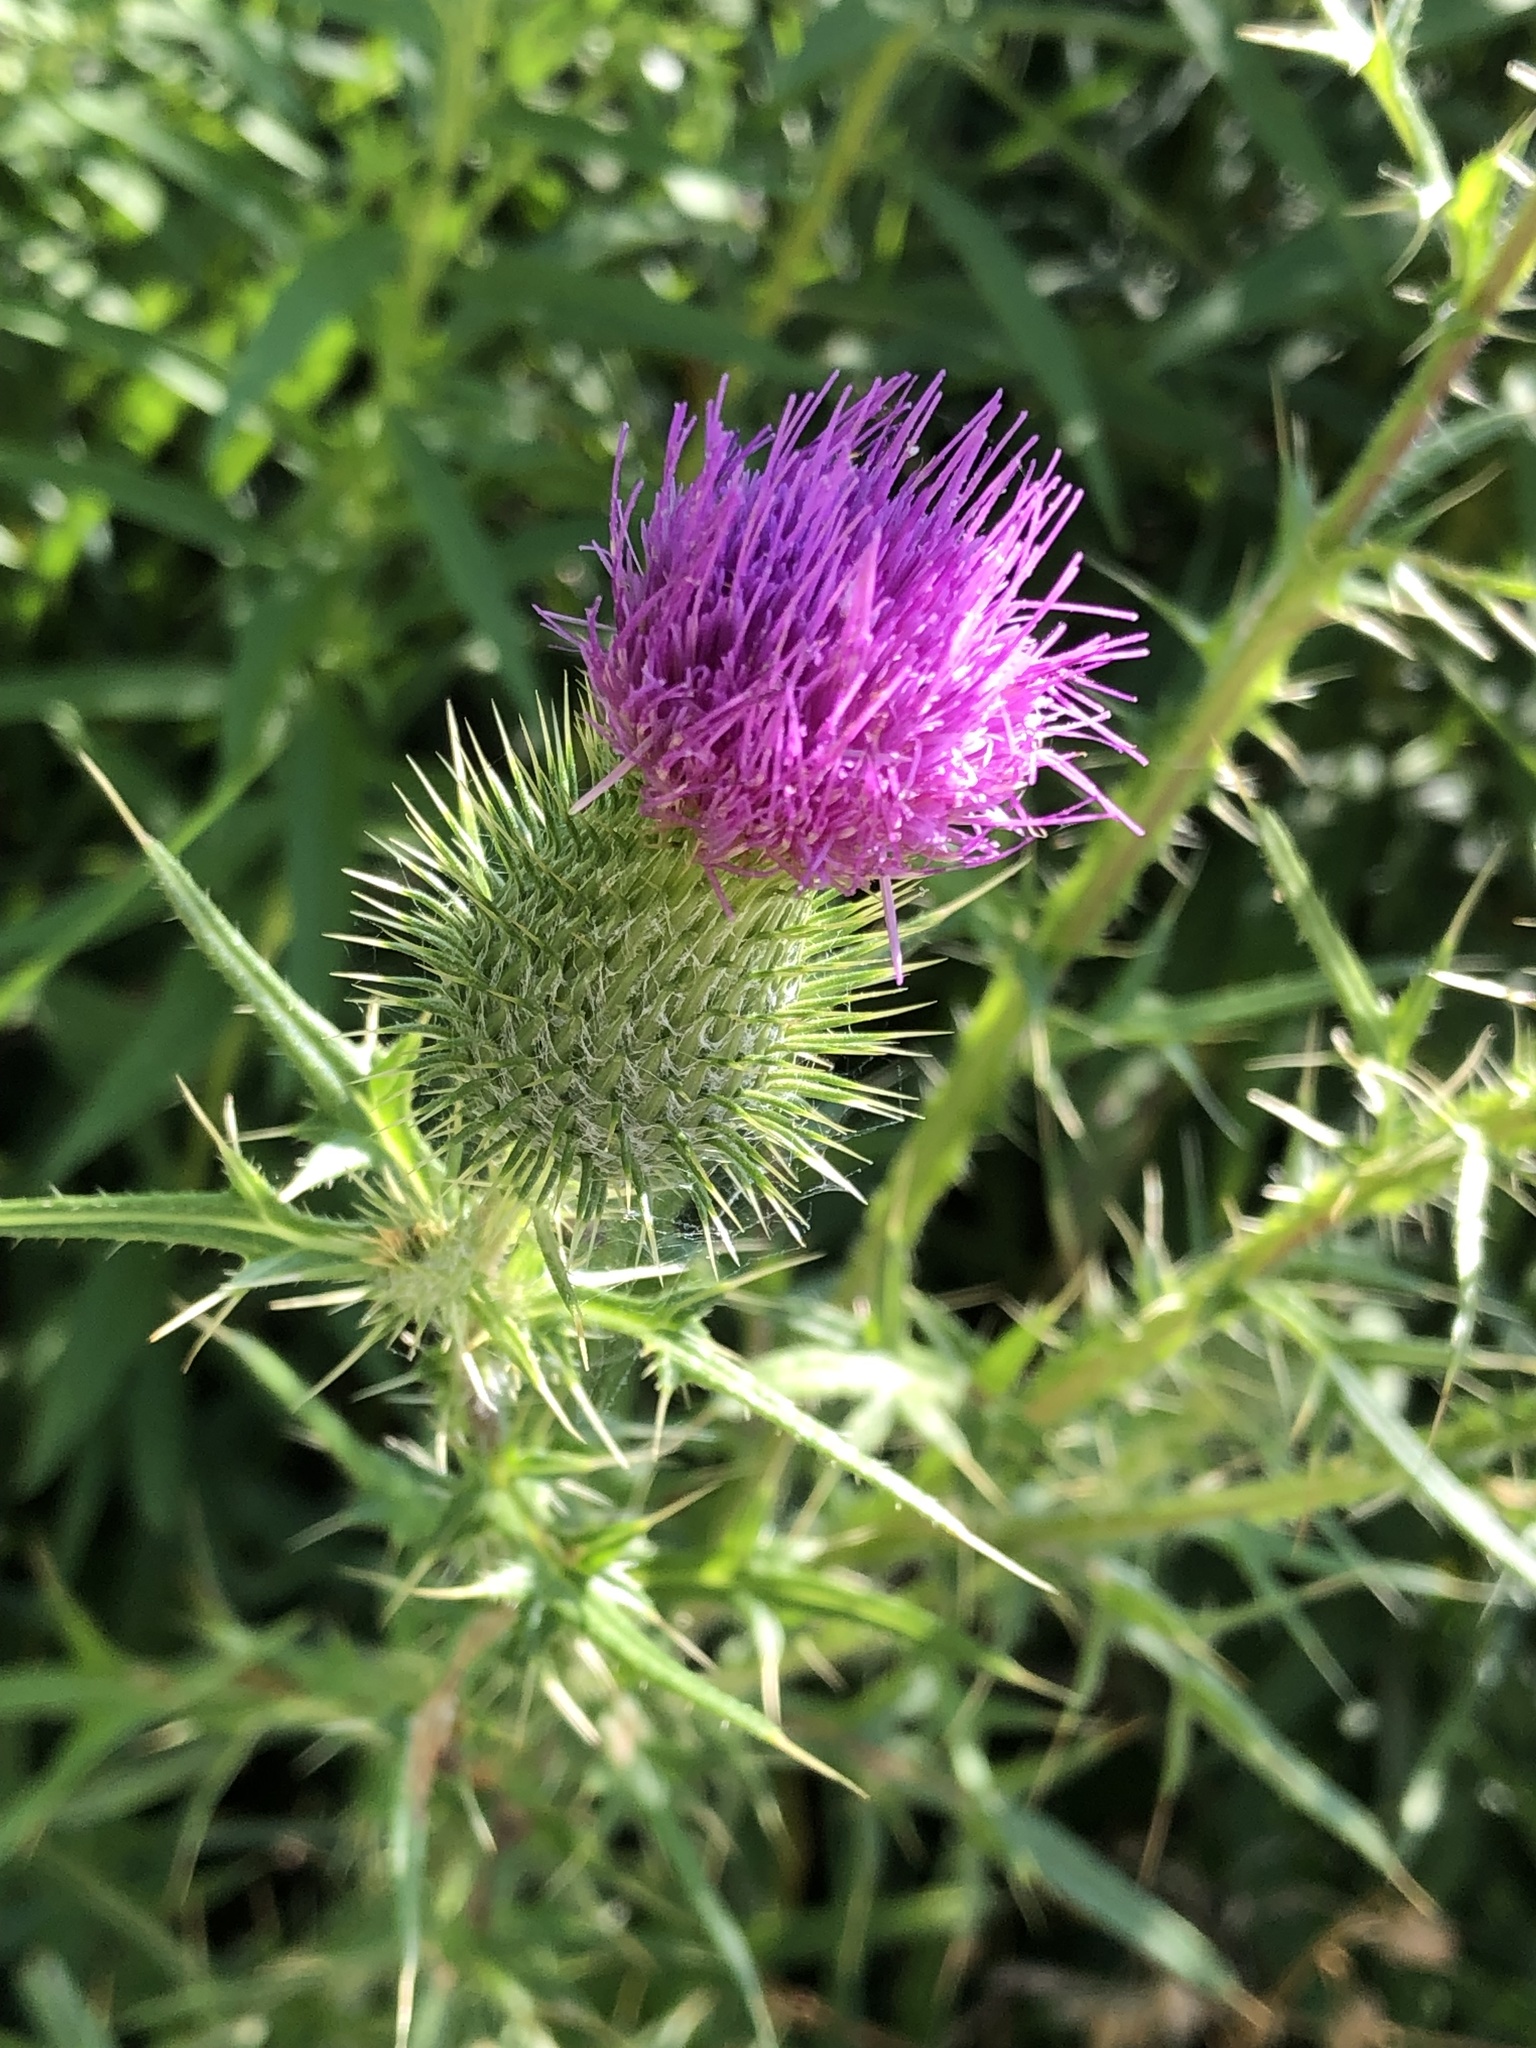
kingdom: Plantae
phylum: Tracheophyta
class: Magnoliopsida
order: Asterales
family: Asteraceae
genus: Cirsium
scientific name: Cirsium vulgare
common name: Bull thistle
